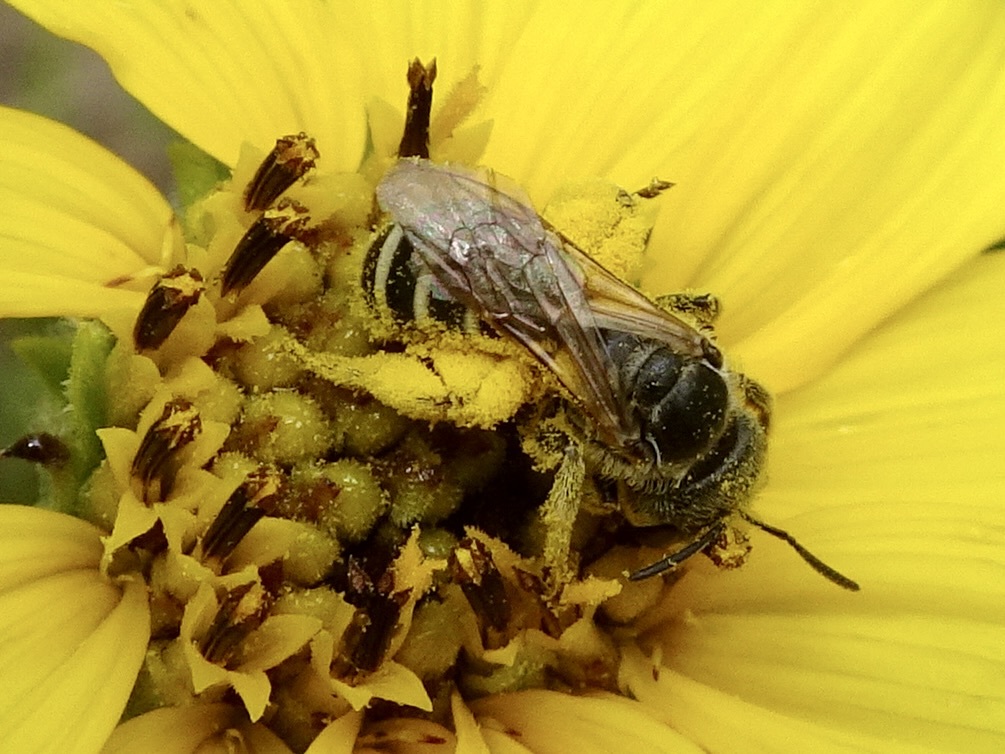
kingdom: Animalia
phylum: Arthropoda
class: Insecta
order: Hymenoptera
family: Halictidae
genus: Halictus
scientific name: Halictus ligatus
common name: Ligated furrow bee
